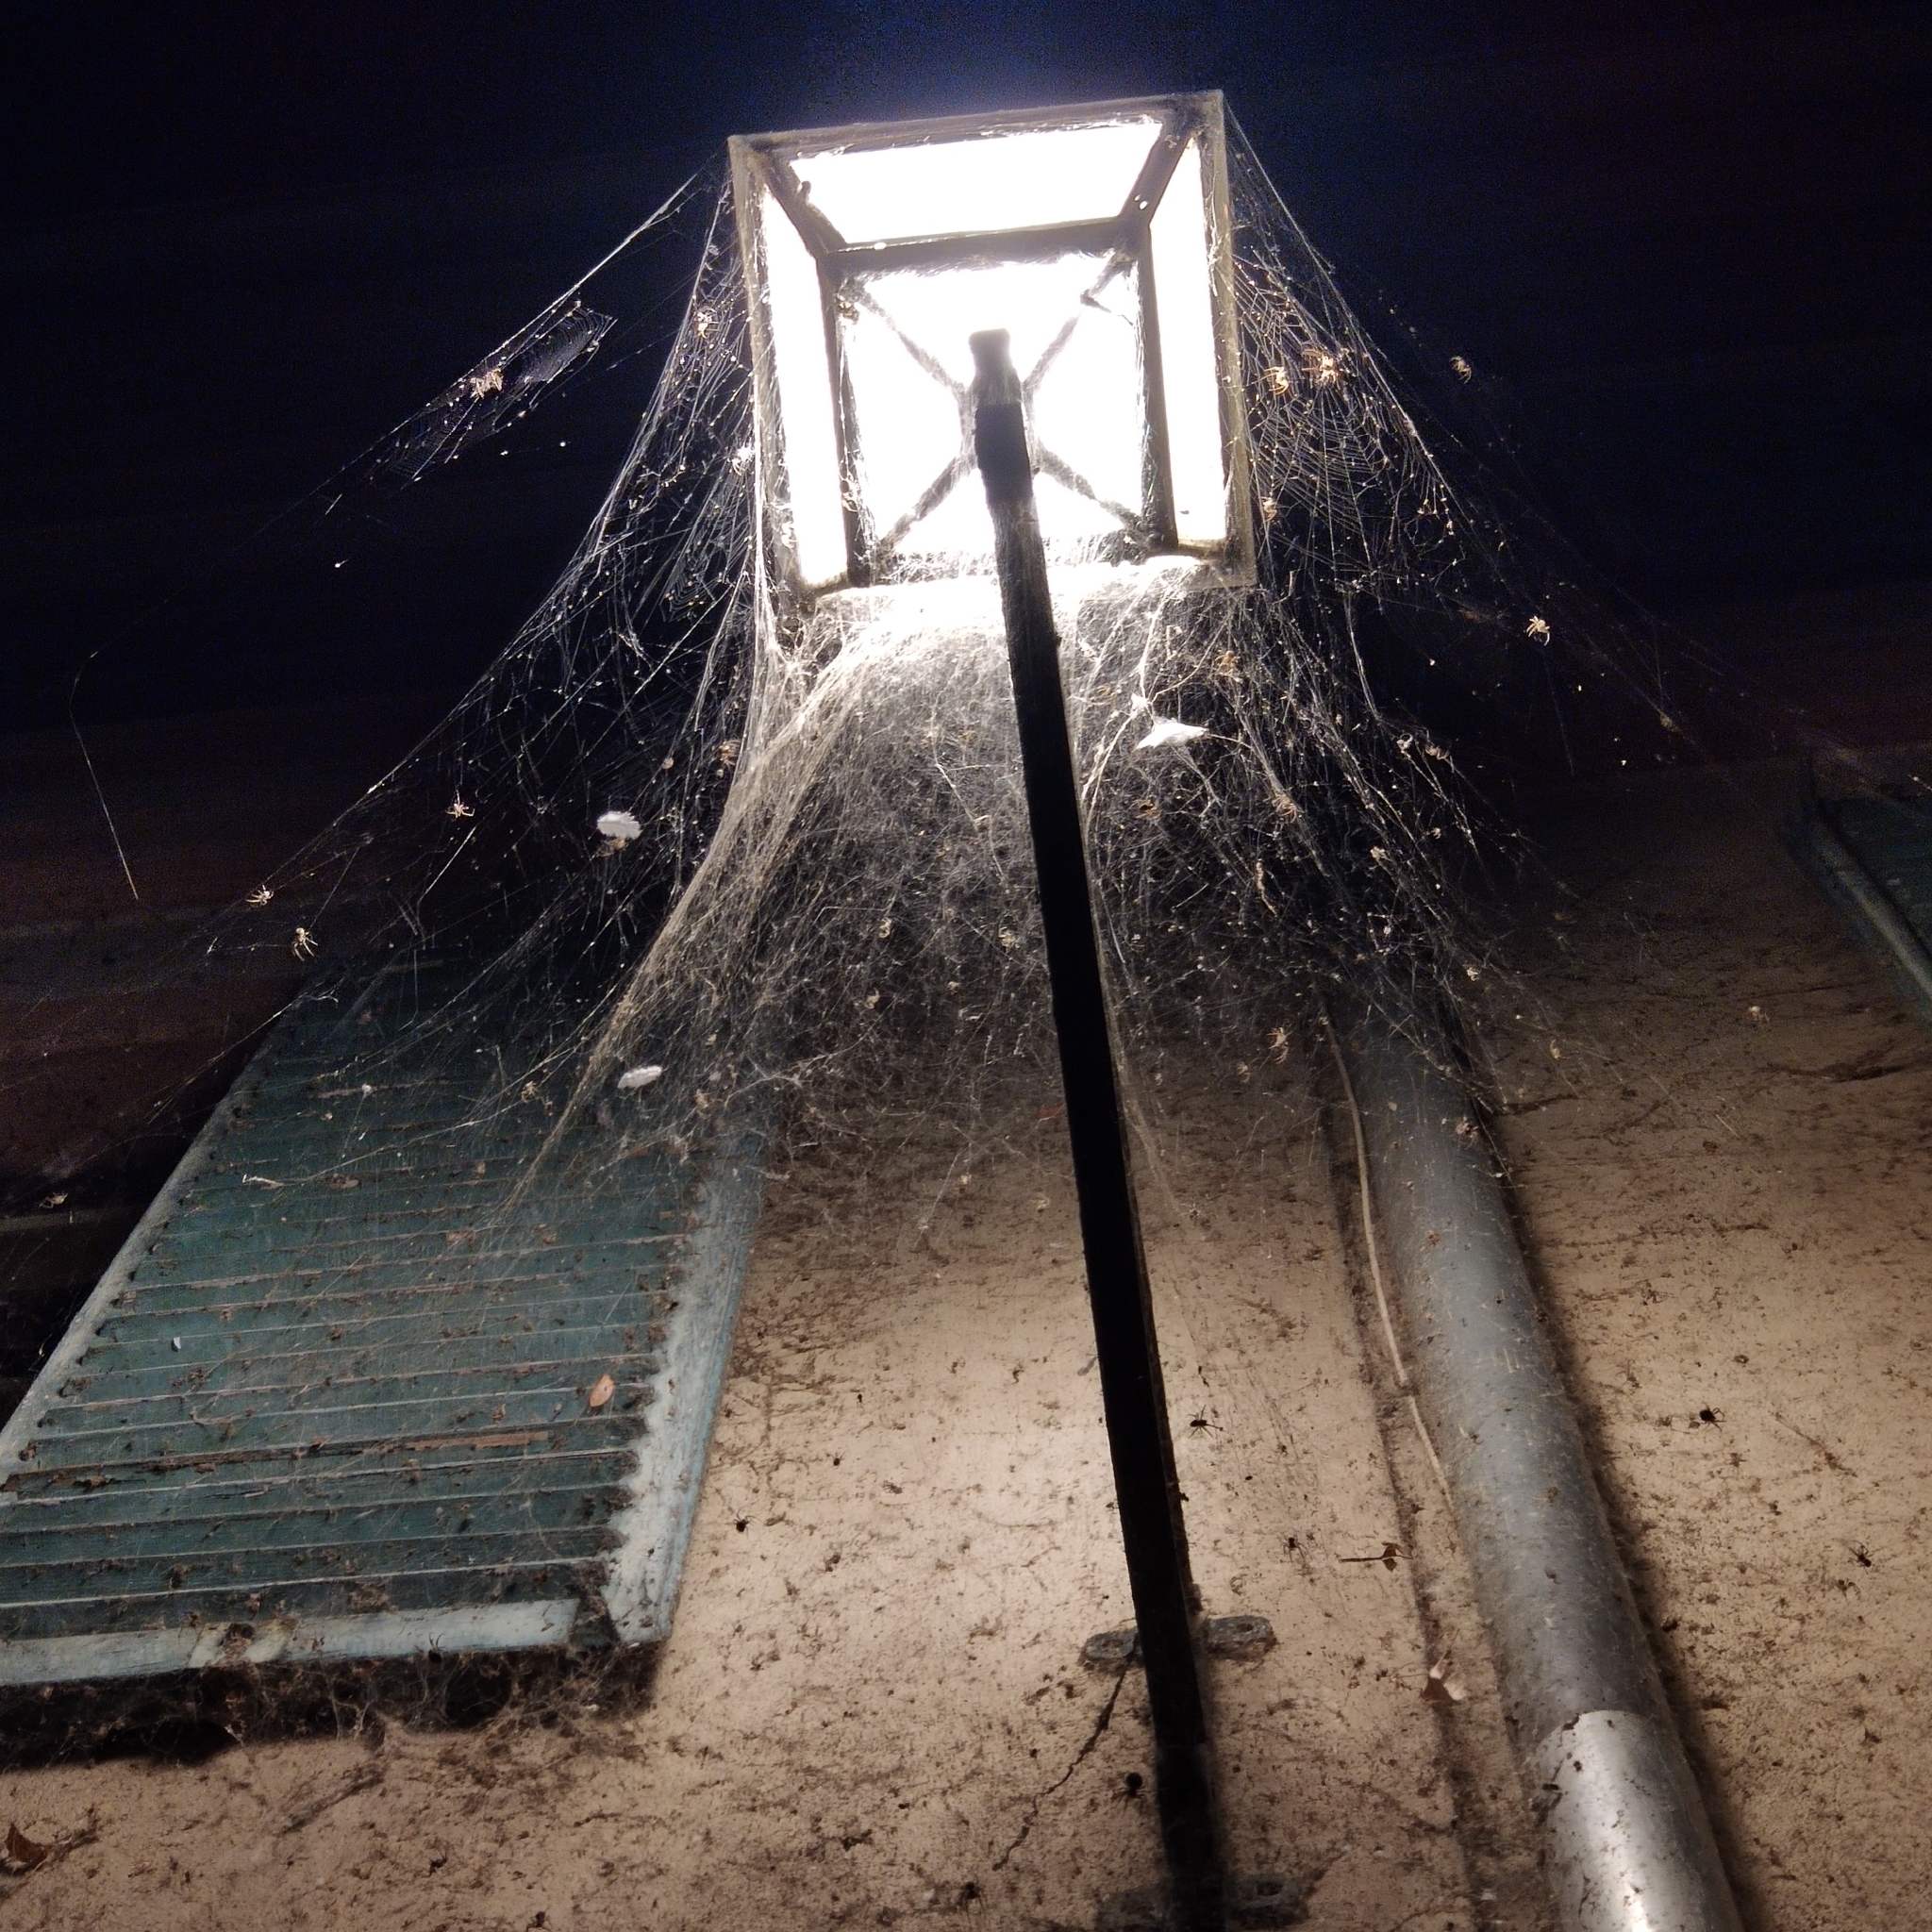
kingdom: Animalia
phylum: Arthropoda
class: Arachnida
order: Araneae
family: Araneidae
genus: Larinioides
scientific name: Larinioides sclopetarius
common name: Bridge orbweaver
